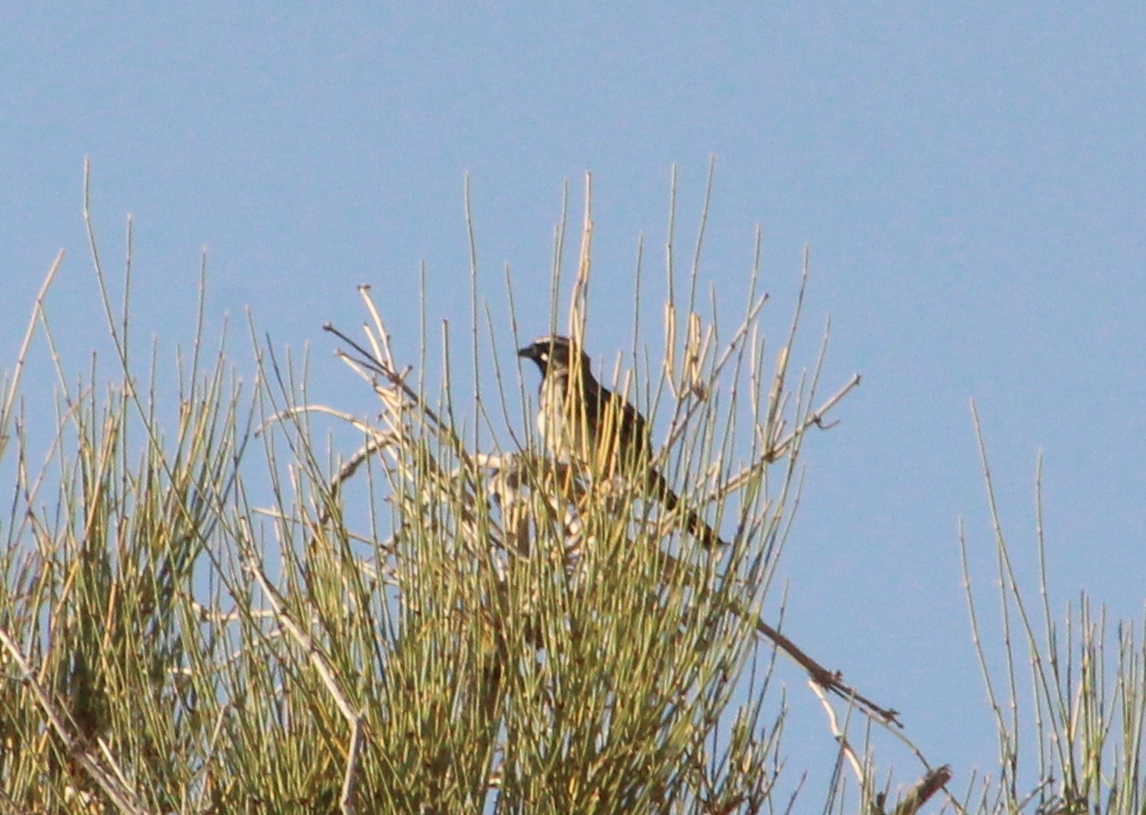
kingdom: Animalia
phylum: Chordata
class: Aves
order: Passeriformes
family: Passerellidae
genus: Amphispiza
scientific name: Amphispiza bilineata
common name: Black-throated sparrow
